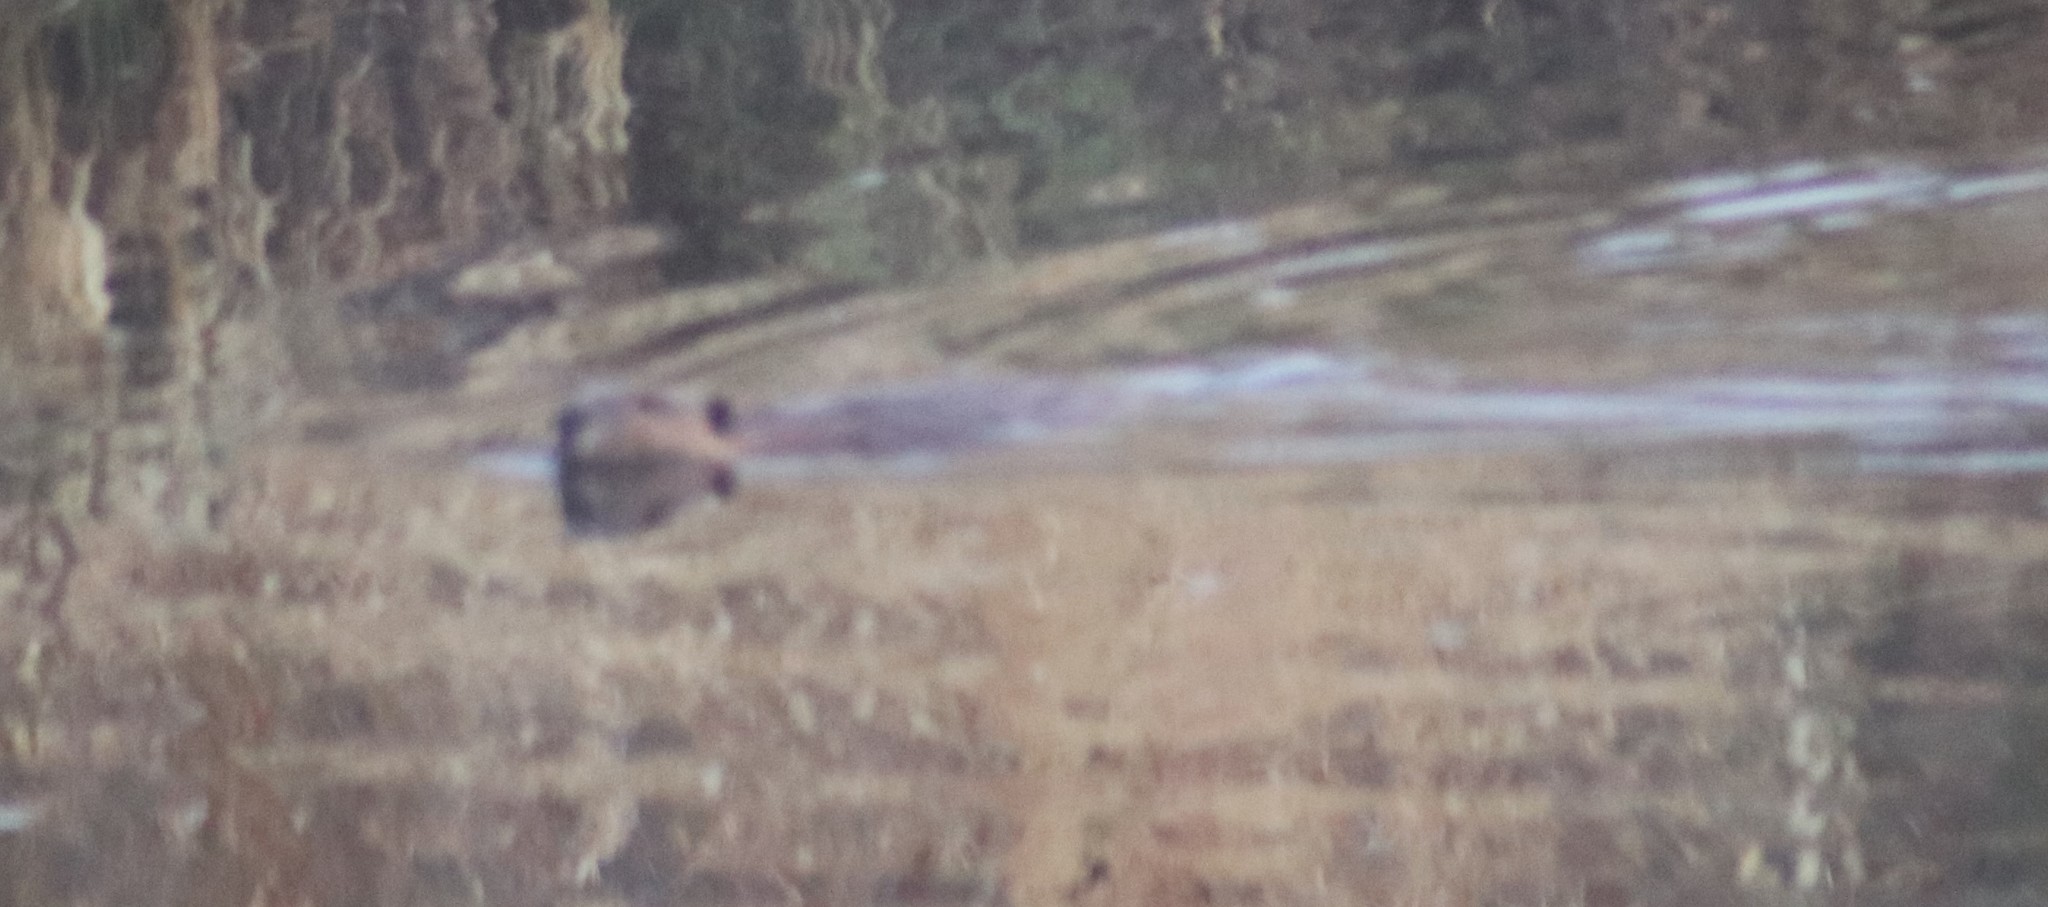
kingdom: Animalia
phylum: Chordata
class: Mammalia
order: Rodentia
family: Castoridae
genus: Castor
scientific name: Castor canadensis
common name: American beaver
